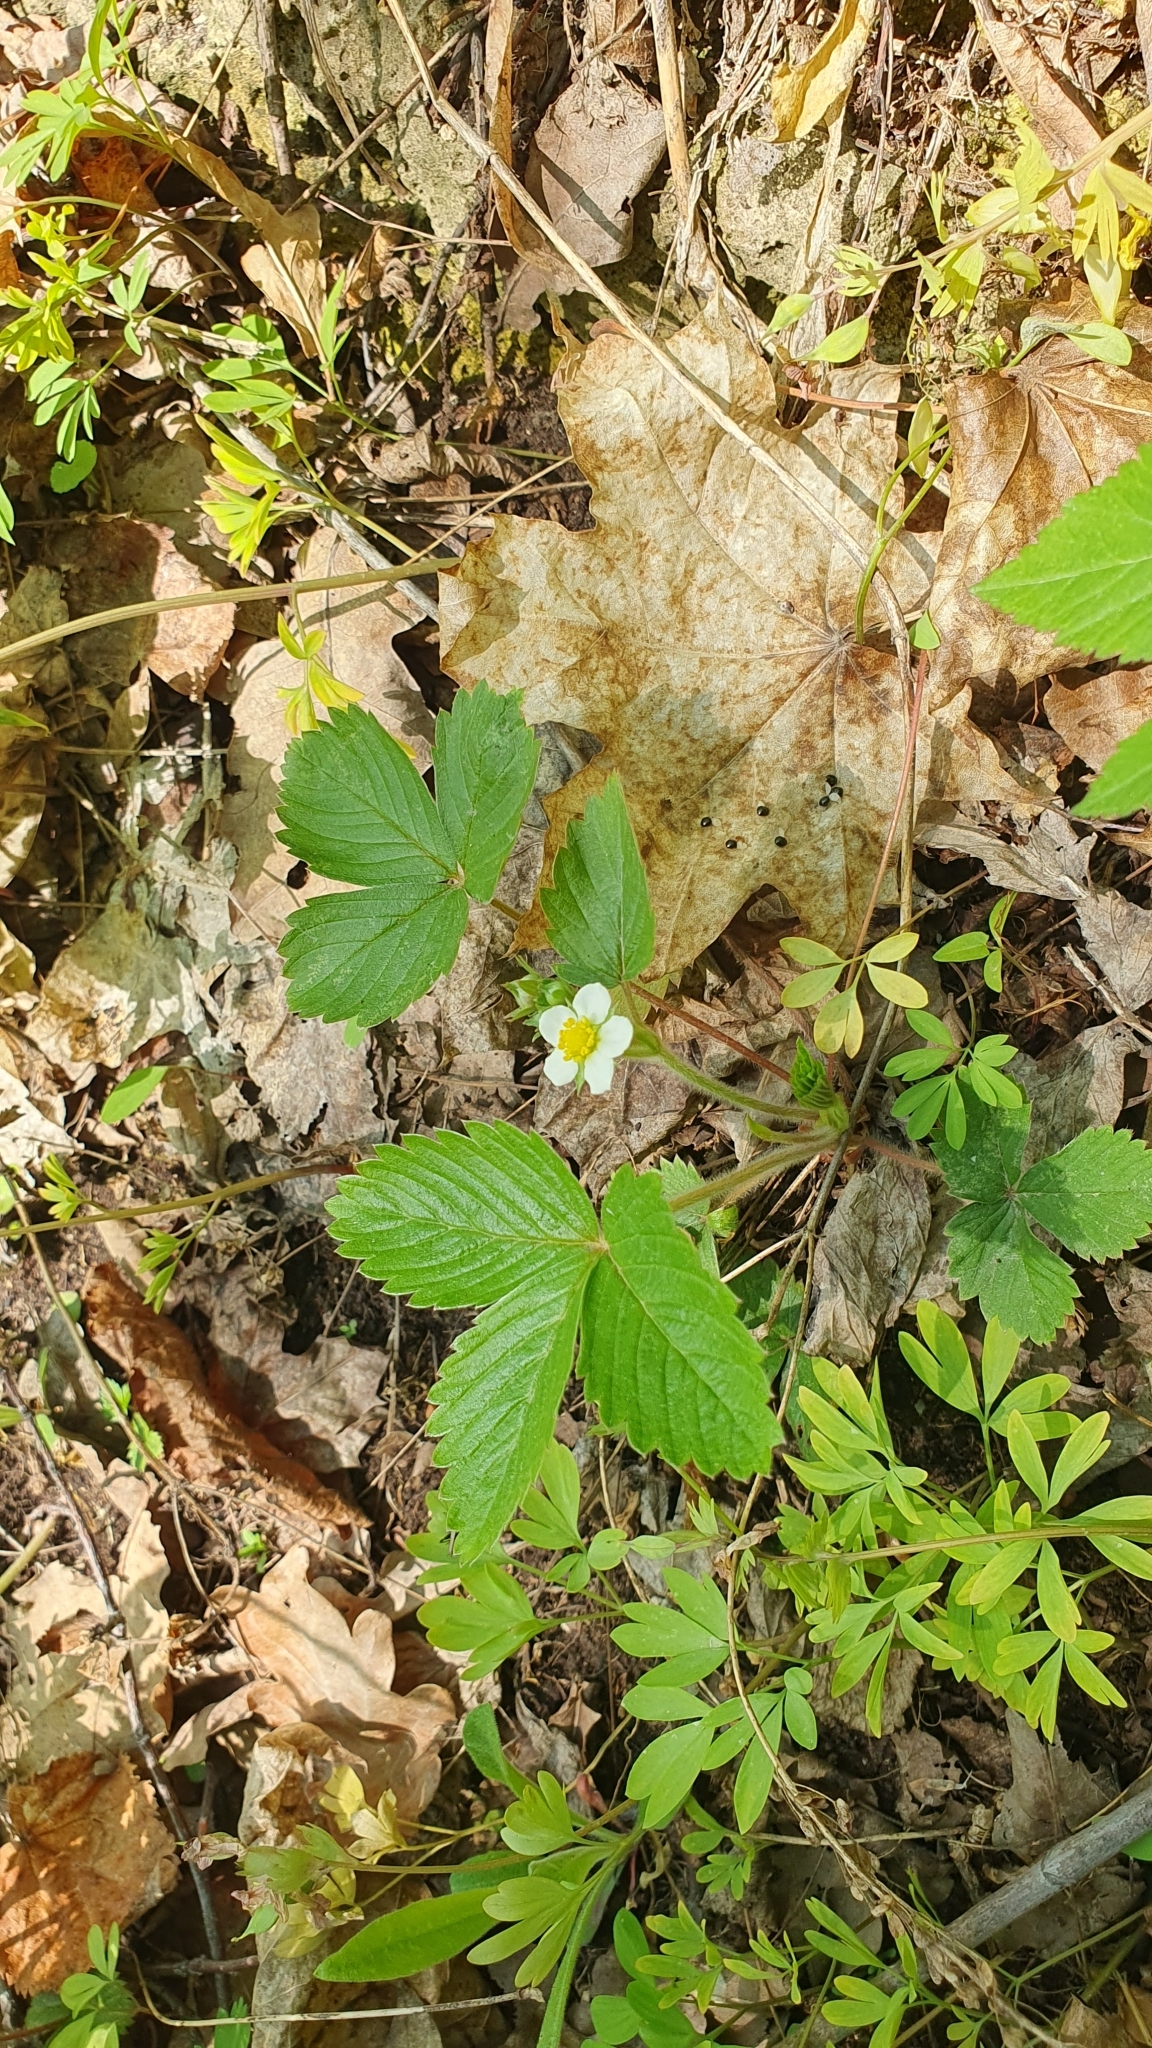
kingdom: Plantae
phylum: Tracheophyta
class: Magnoliopsida
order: Rosales
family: Rosaceae
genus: Fragaria
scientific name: Fragaria vesca
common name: Wild strawberry
